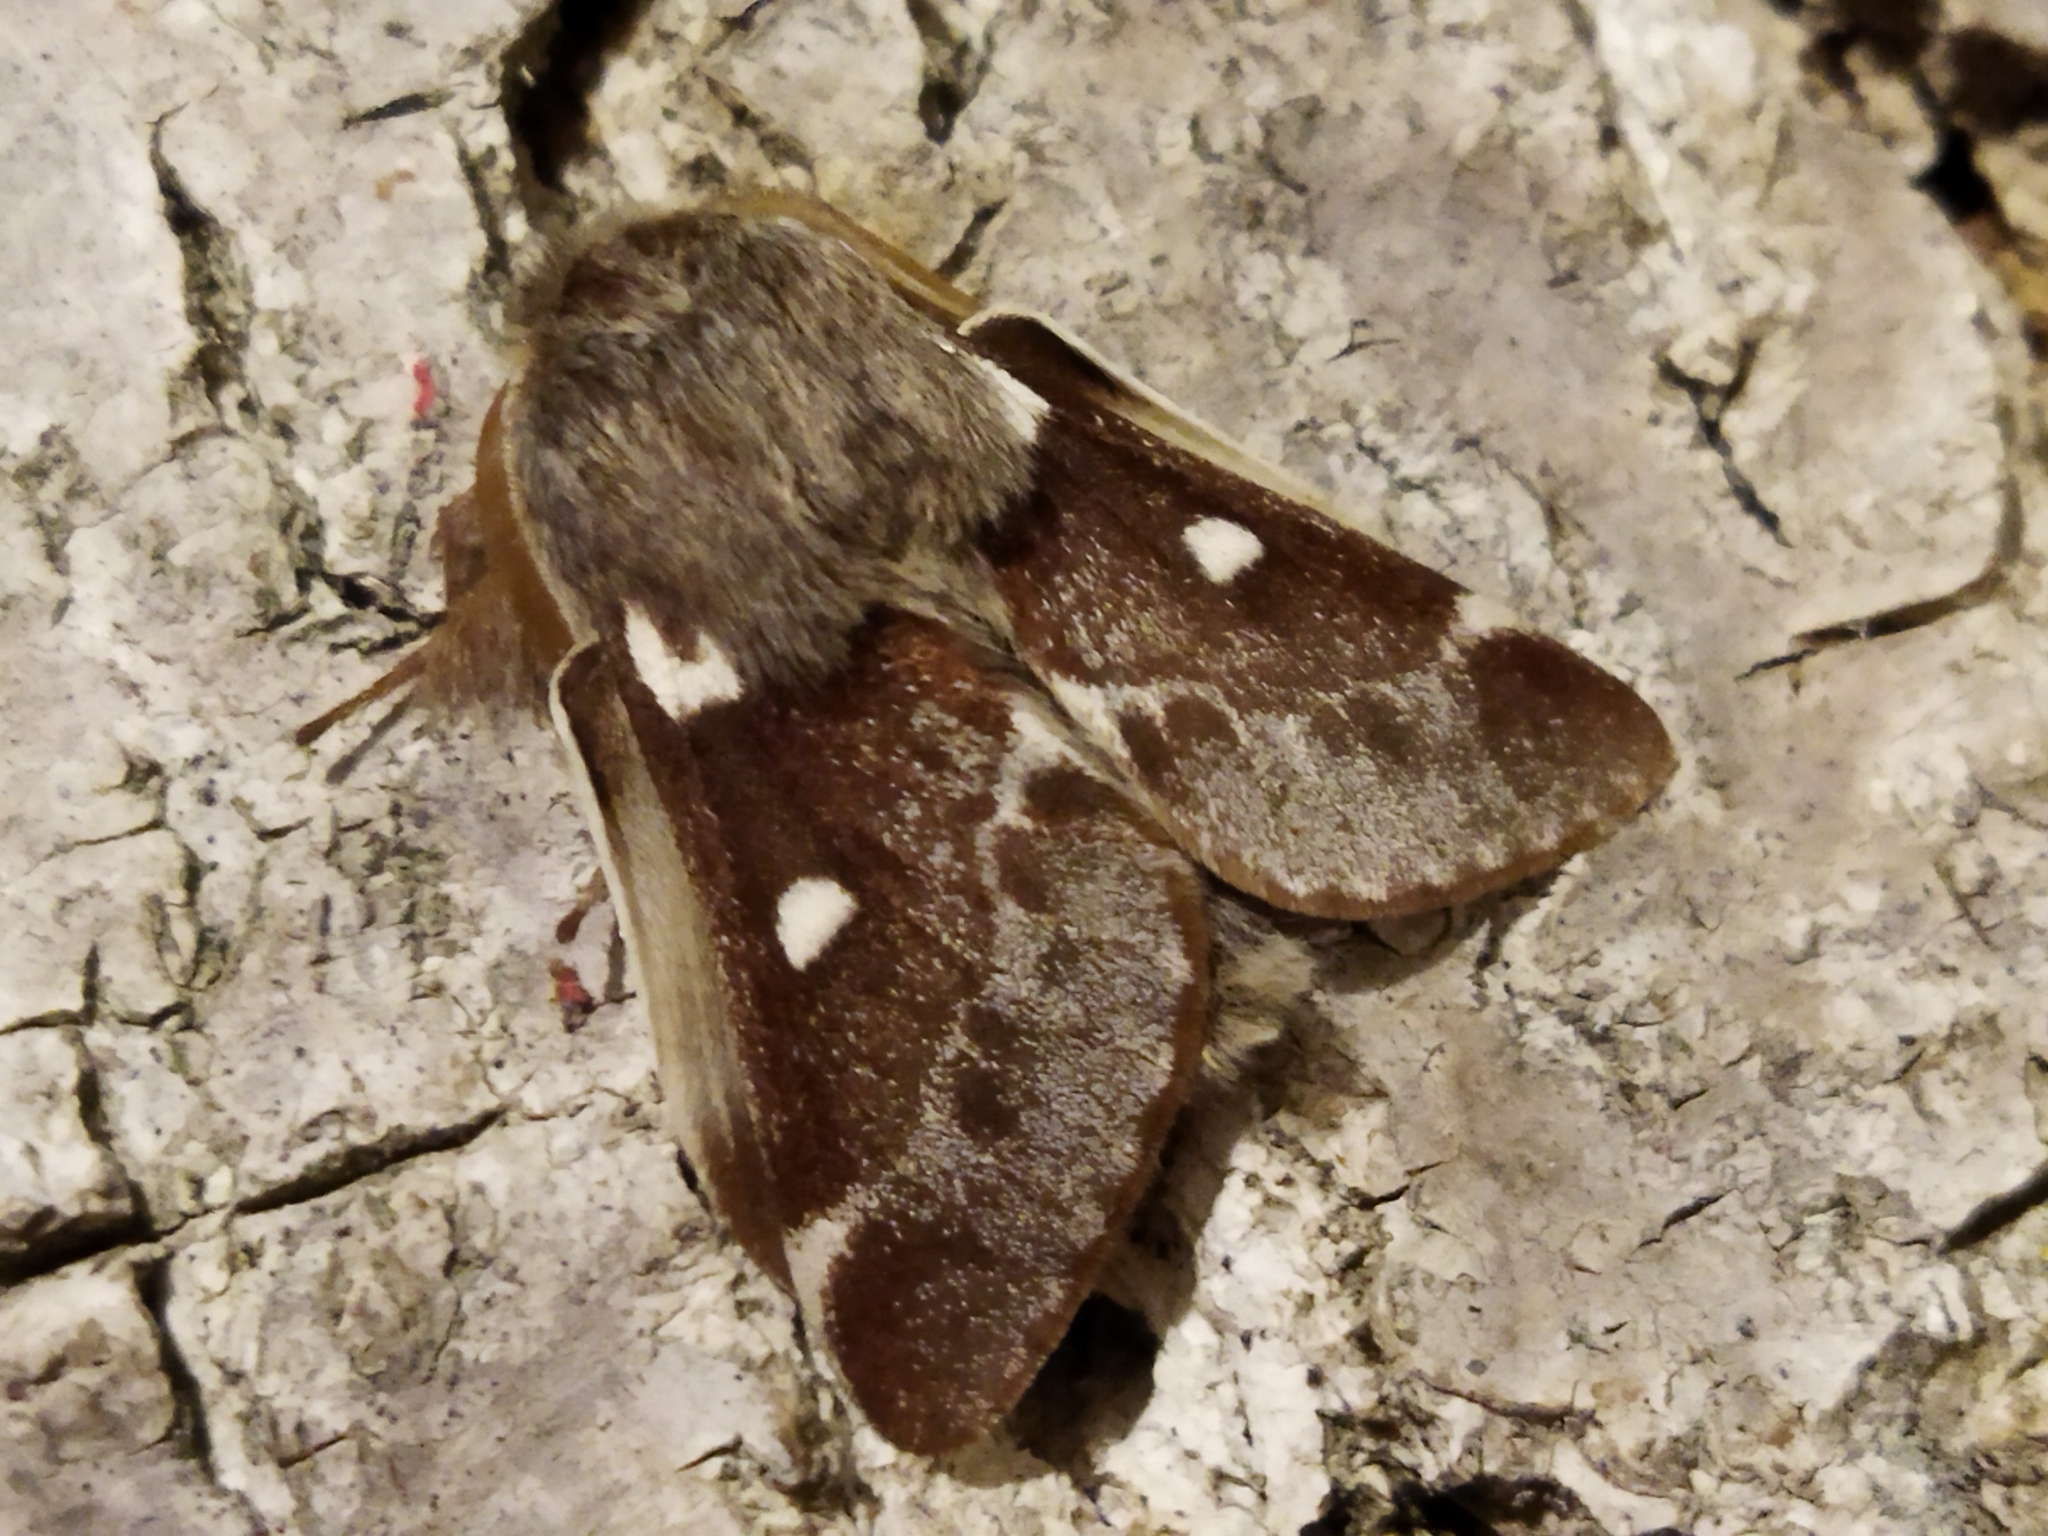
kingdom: Animalia
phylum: Arthropoda
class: Insecta
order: Lepidoptera
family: Lasiocampidae
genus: Eriogaster
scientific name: Eriogaster lanestris
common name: Small eggar
